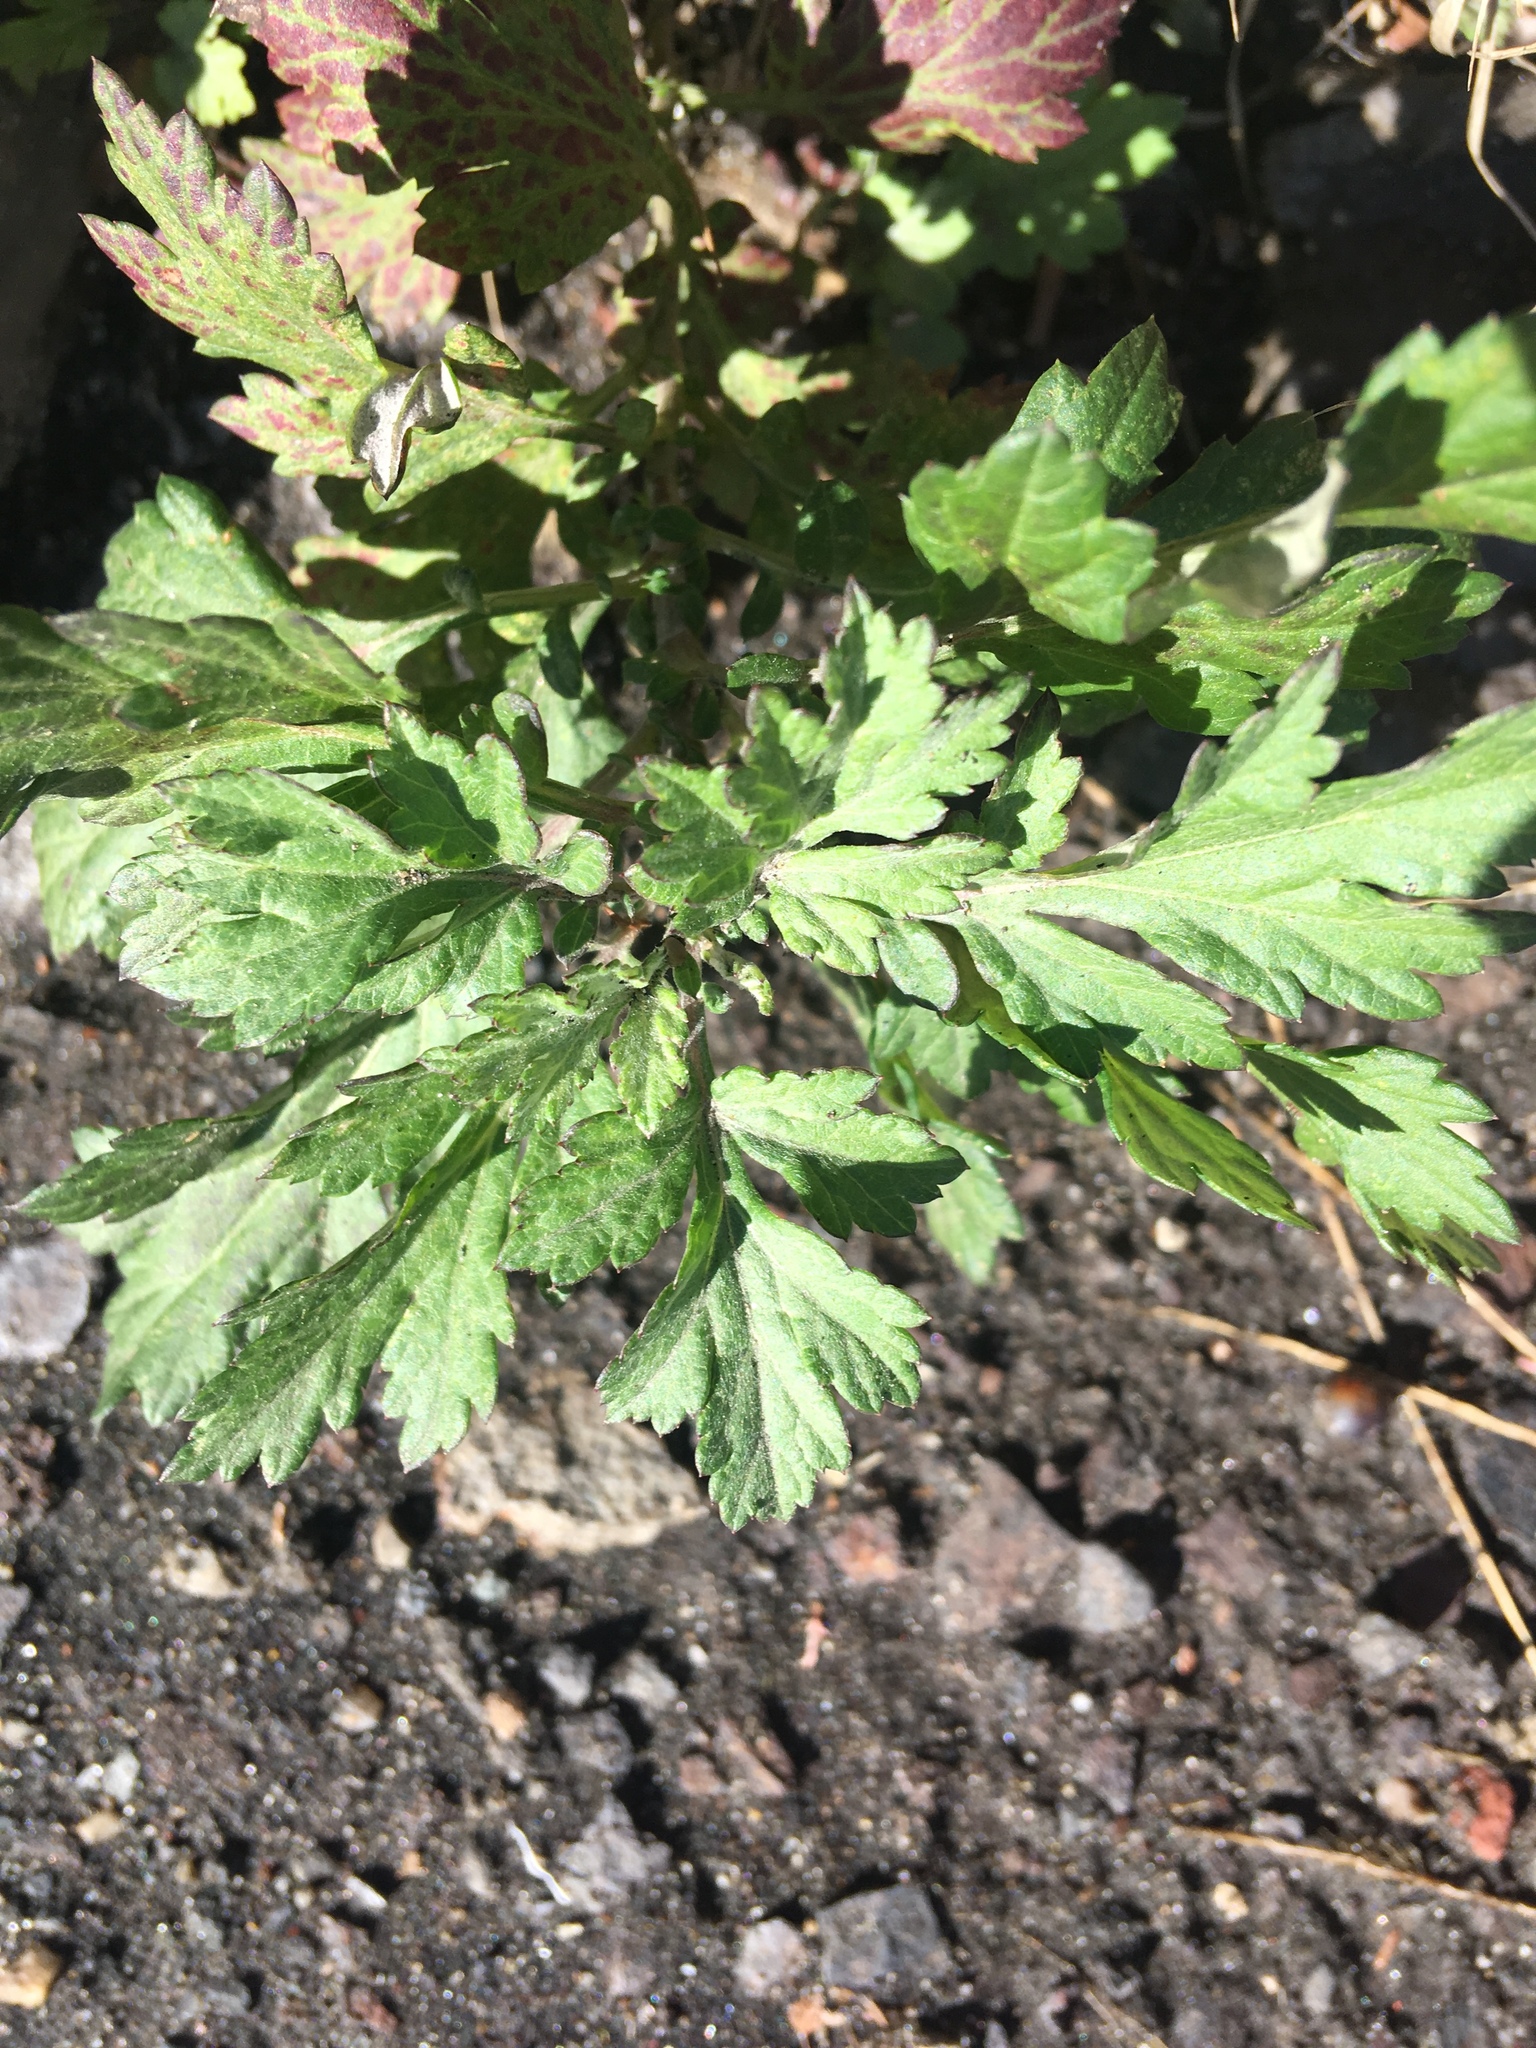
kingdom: Plantae
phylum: Tracheophyta
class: Magnoliopsida
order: Asterales
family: Asteraceae
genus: Artemisia
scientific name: Artemisia vulgaris
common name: Mugwort
